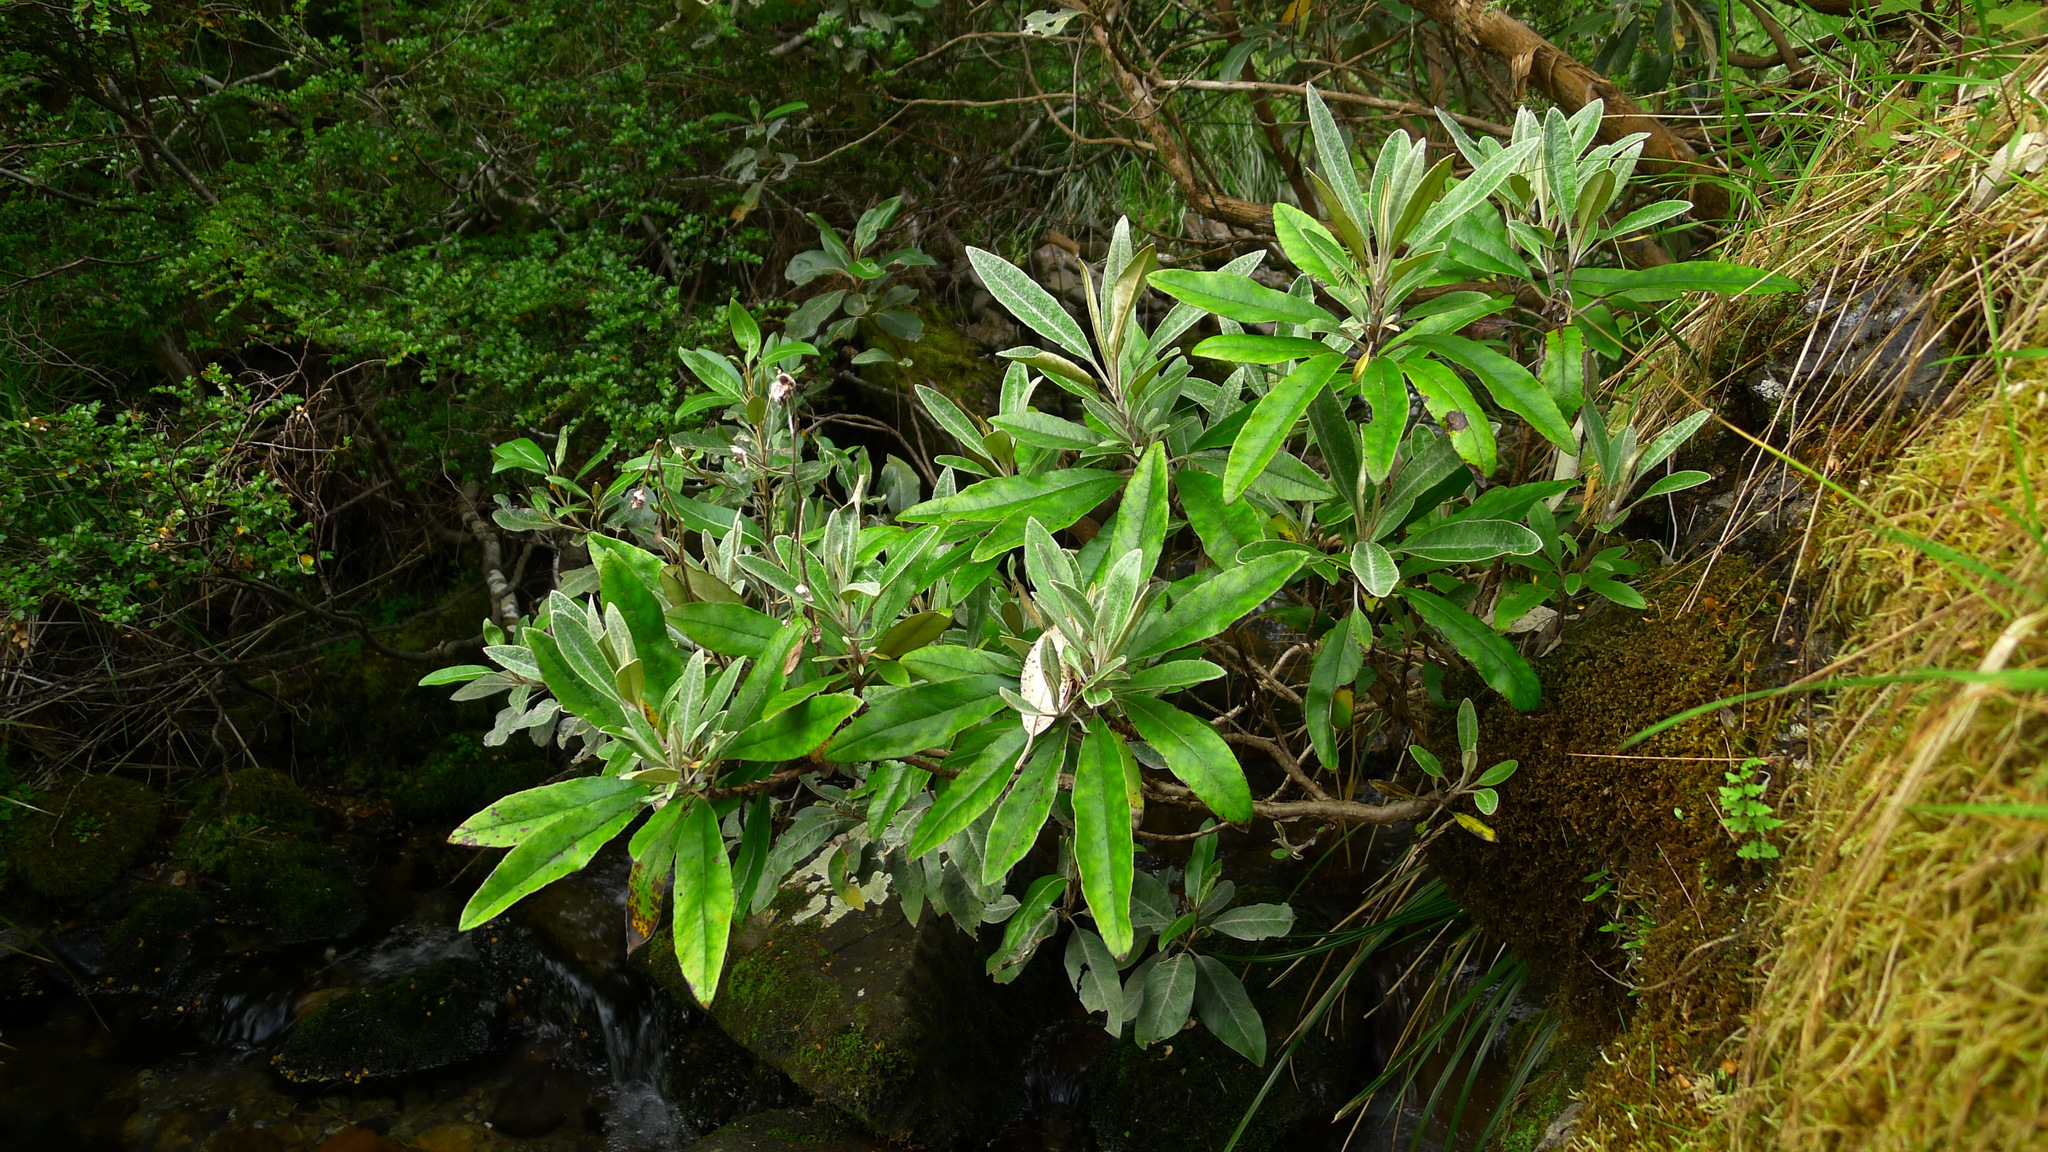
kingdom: Plantae
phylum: Tracheophyta
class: Magnoliopsida
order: Asterales
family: Asteraceae
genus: Brachyglottis
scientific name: Brachyglottis laxifolia
